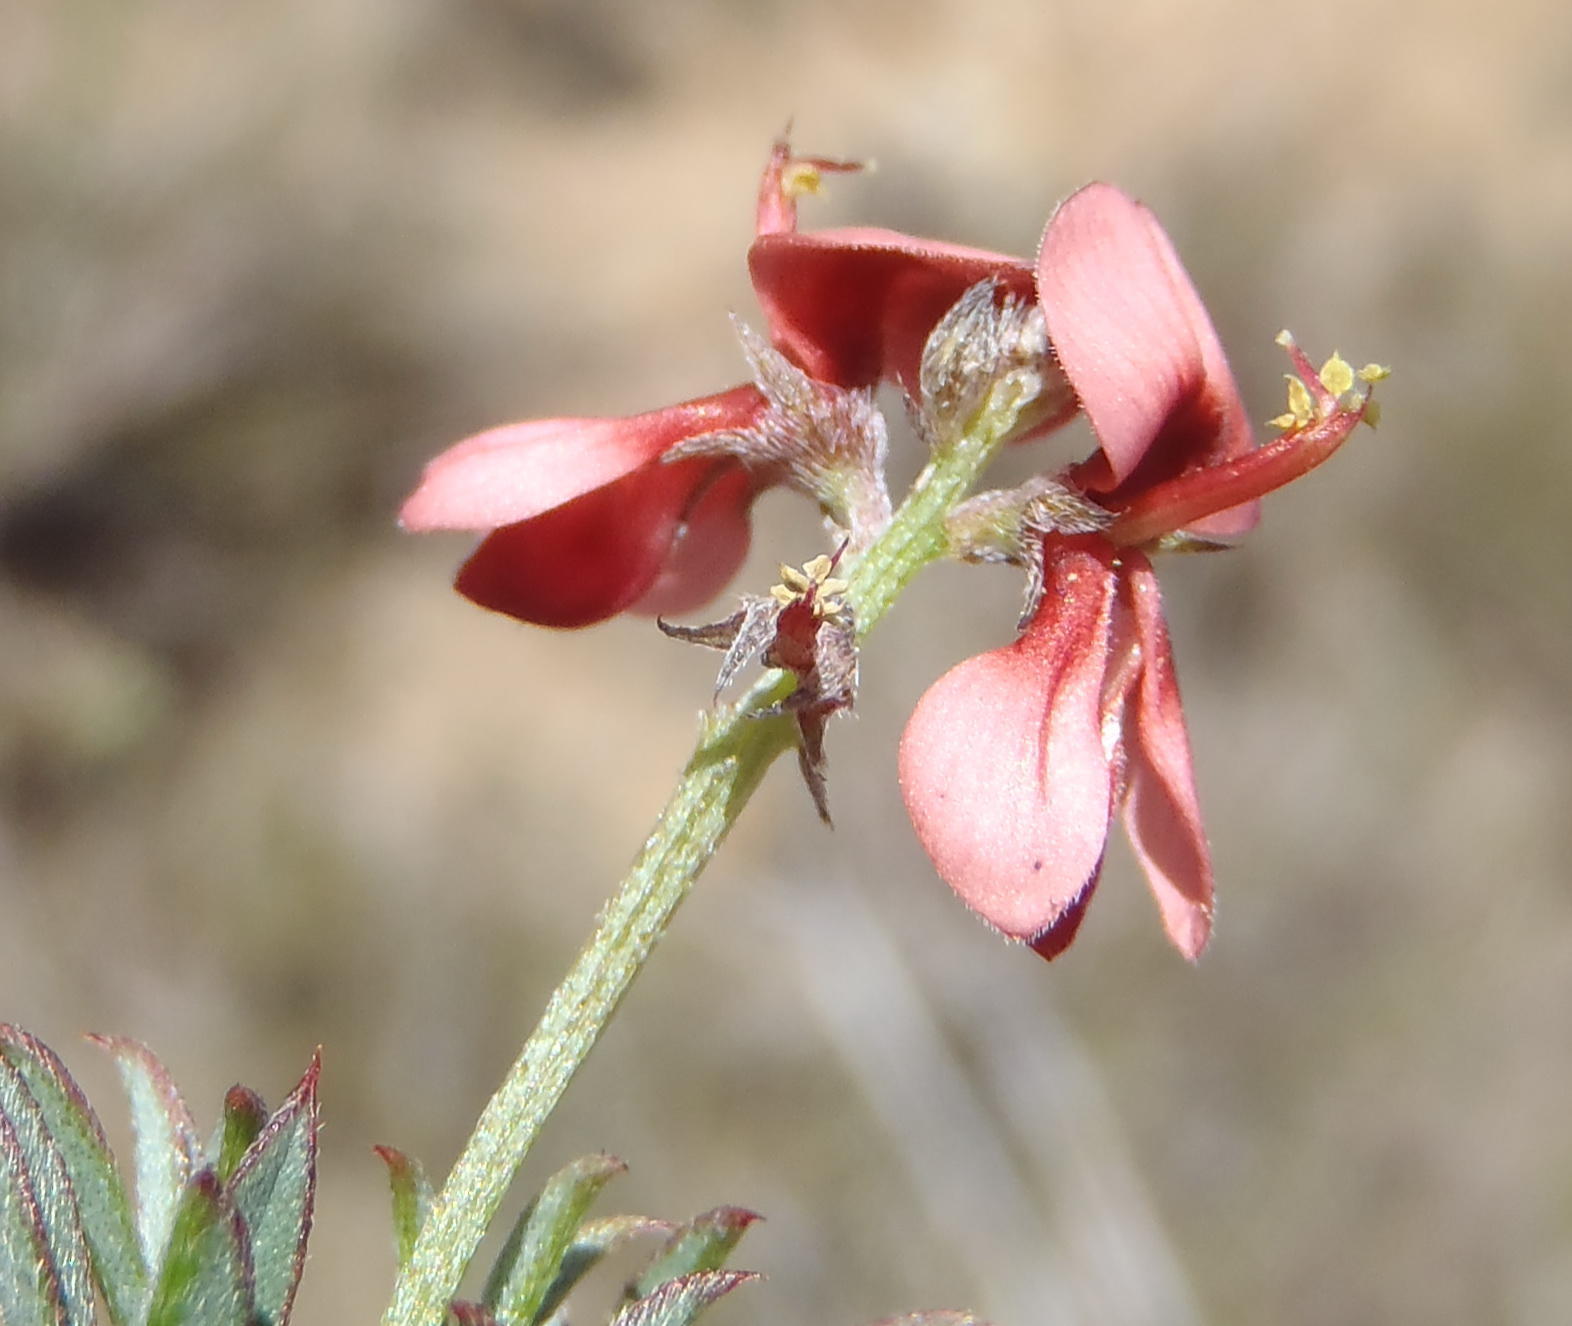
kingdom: Plantae
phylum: Tracheophyta
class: Magnoliopsida
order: Fabales
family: Fabaceae
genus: Indigofera
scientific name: Indigofera heterophylla
